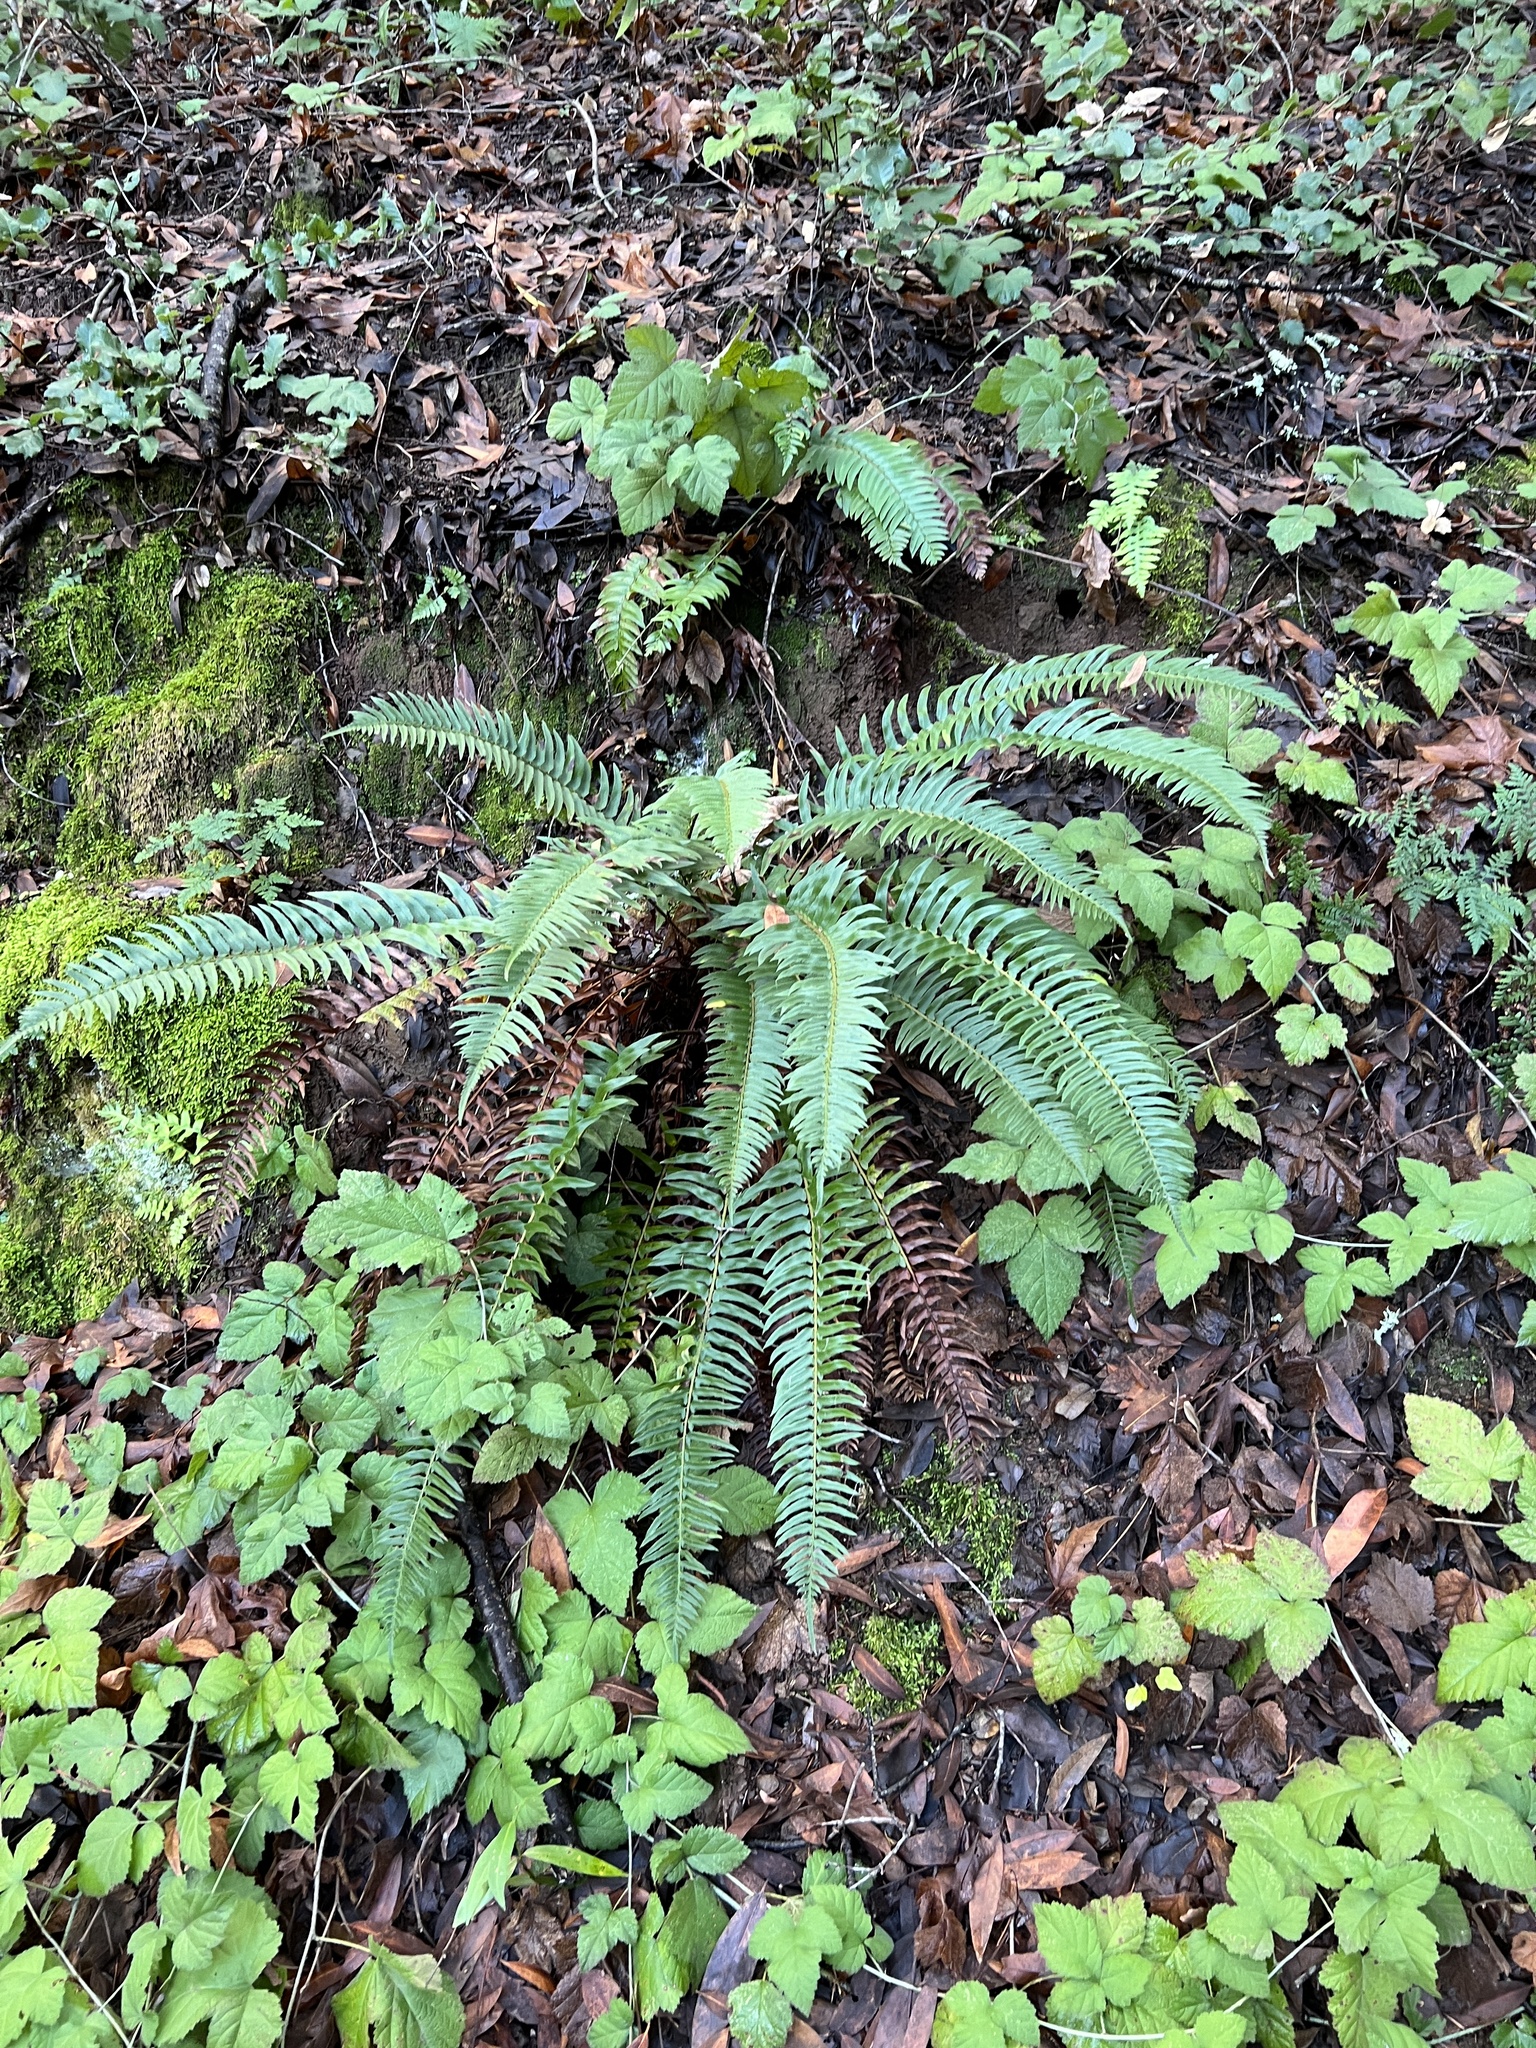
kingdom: Plantae
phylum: Tracheophyta
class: Polypodiopsida
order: Polypodiales
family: Dryopteridaceae
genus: Polystichum
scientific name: Polystichum munitum
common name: Western sword-fern
